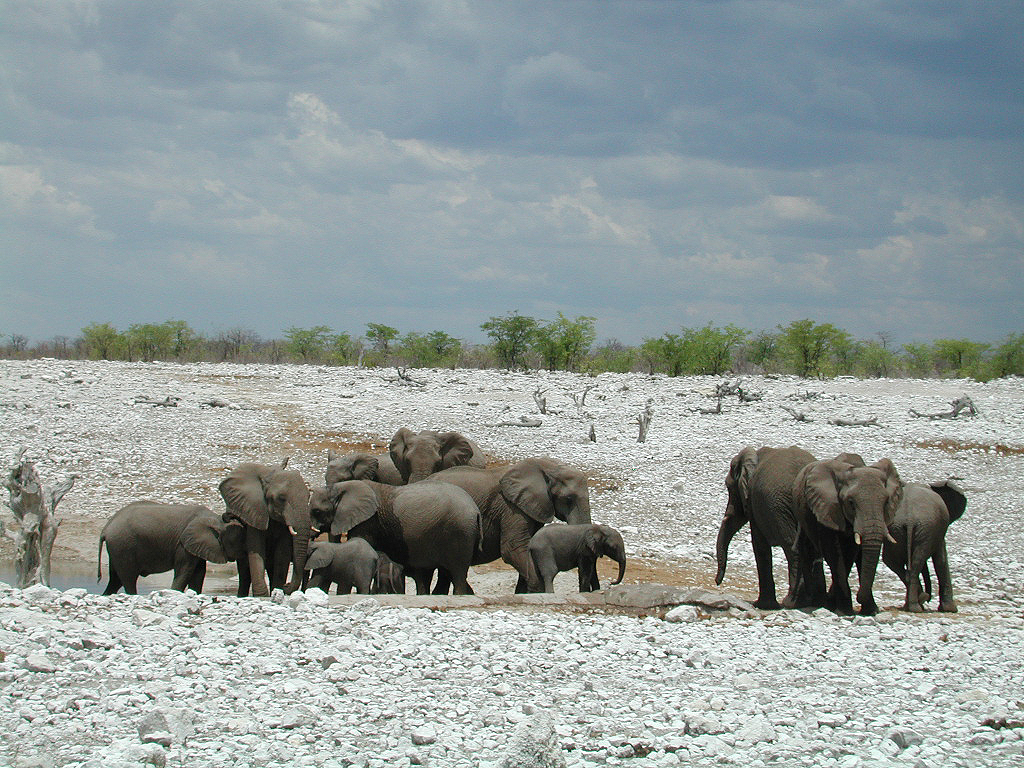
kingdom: Animalia
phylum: Chordata
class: Mammalia
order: Proboscidea
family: Elephantidae
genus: Loxodonta
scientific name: Loxodonta africana
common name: African elephant
